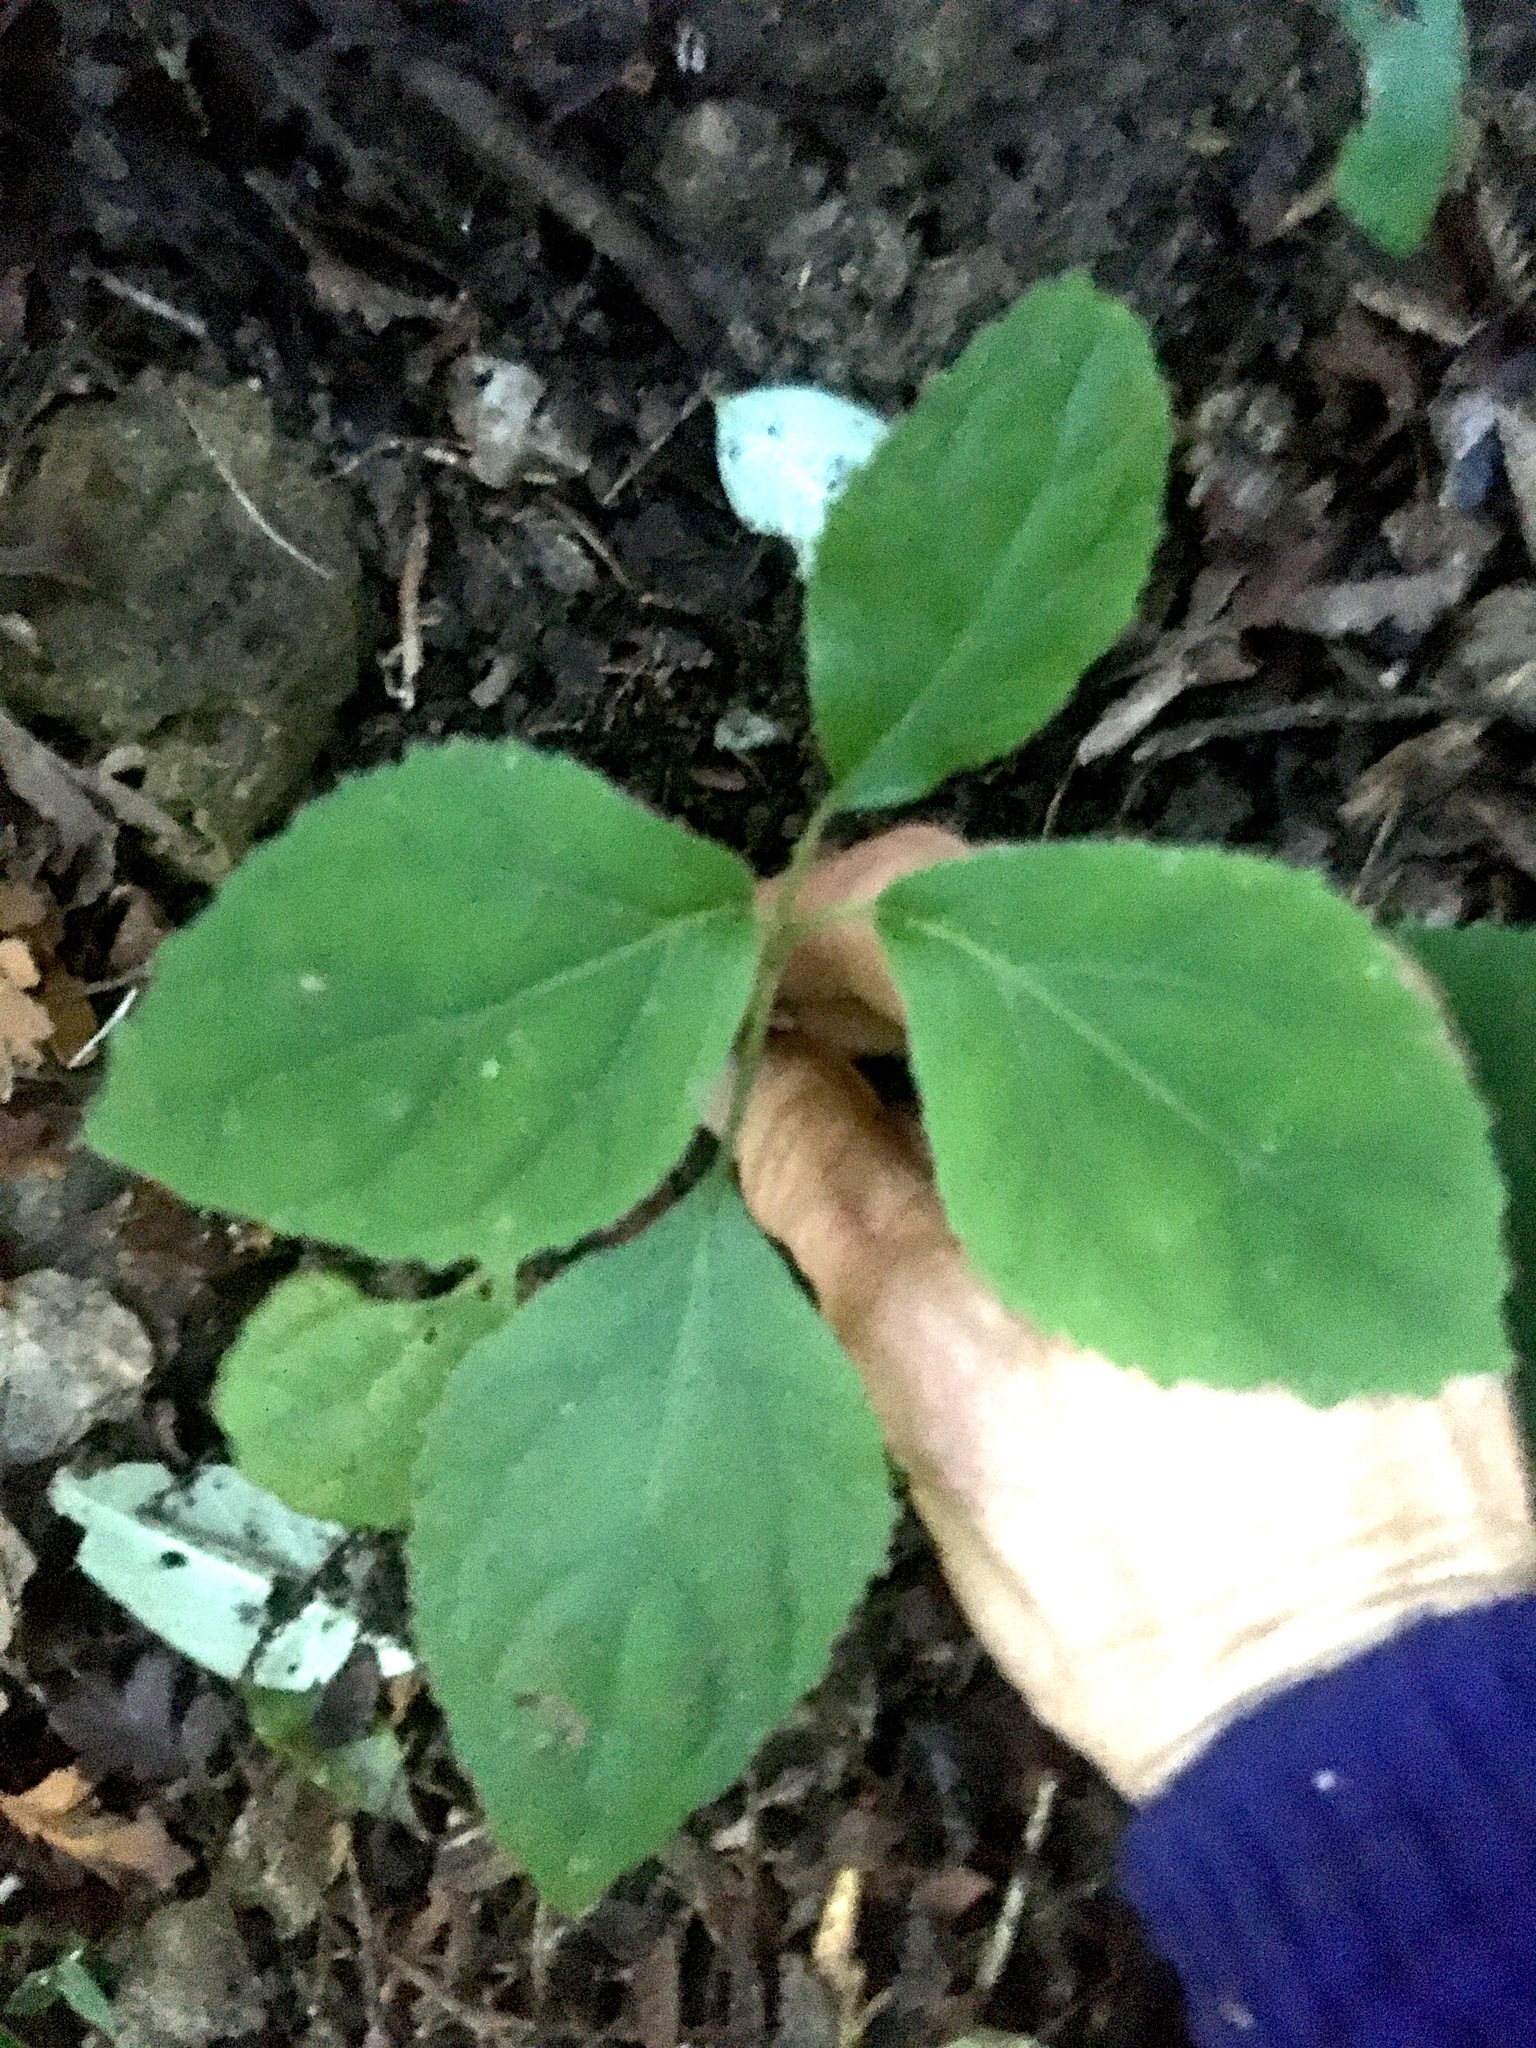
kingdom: Plantae
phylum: Tracheophyta
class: Magnoliopsida
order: Asterales
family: Asteraceae
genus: Bartlettina
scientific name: Bartlettina sordida
